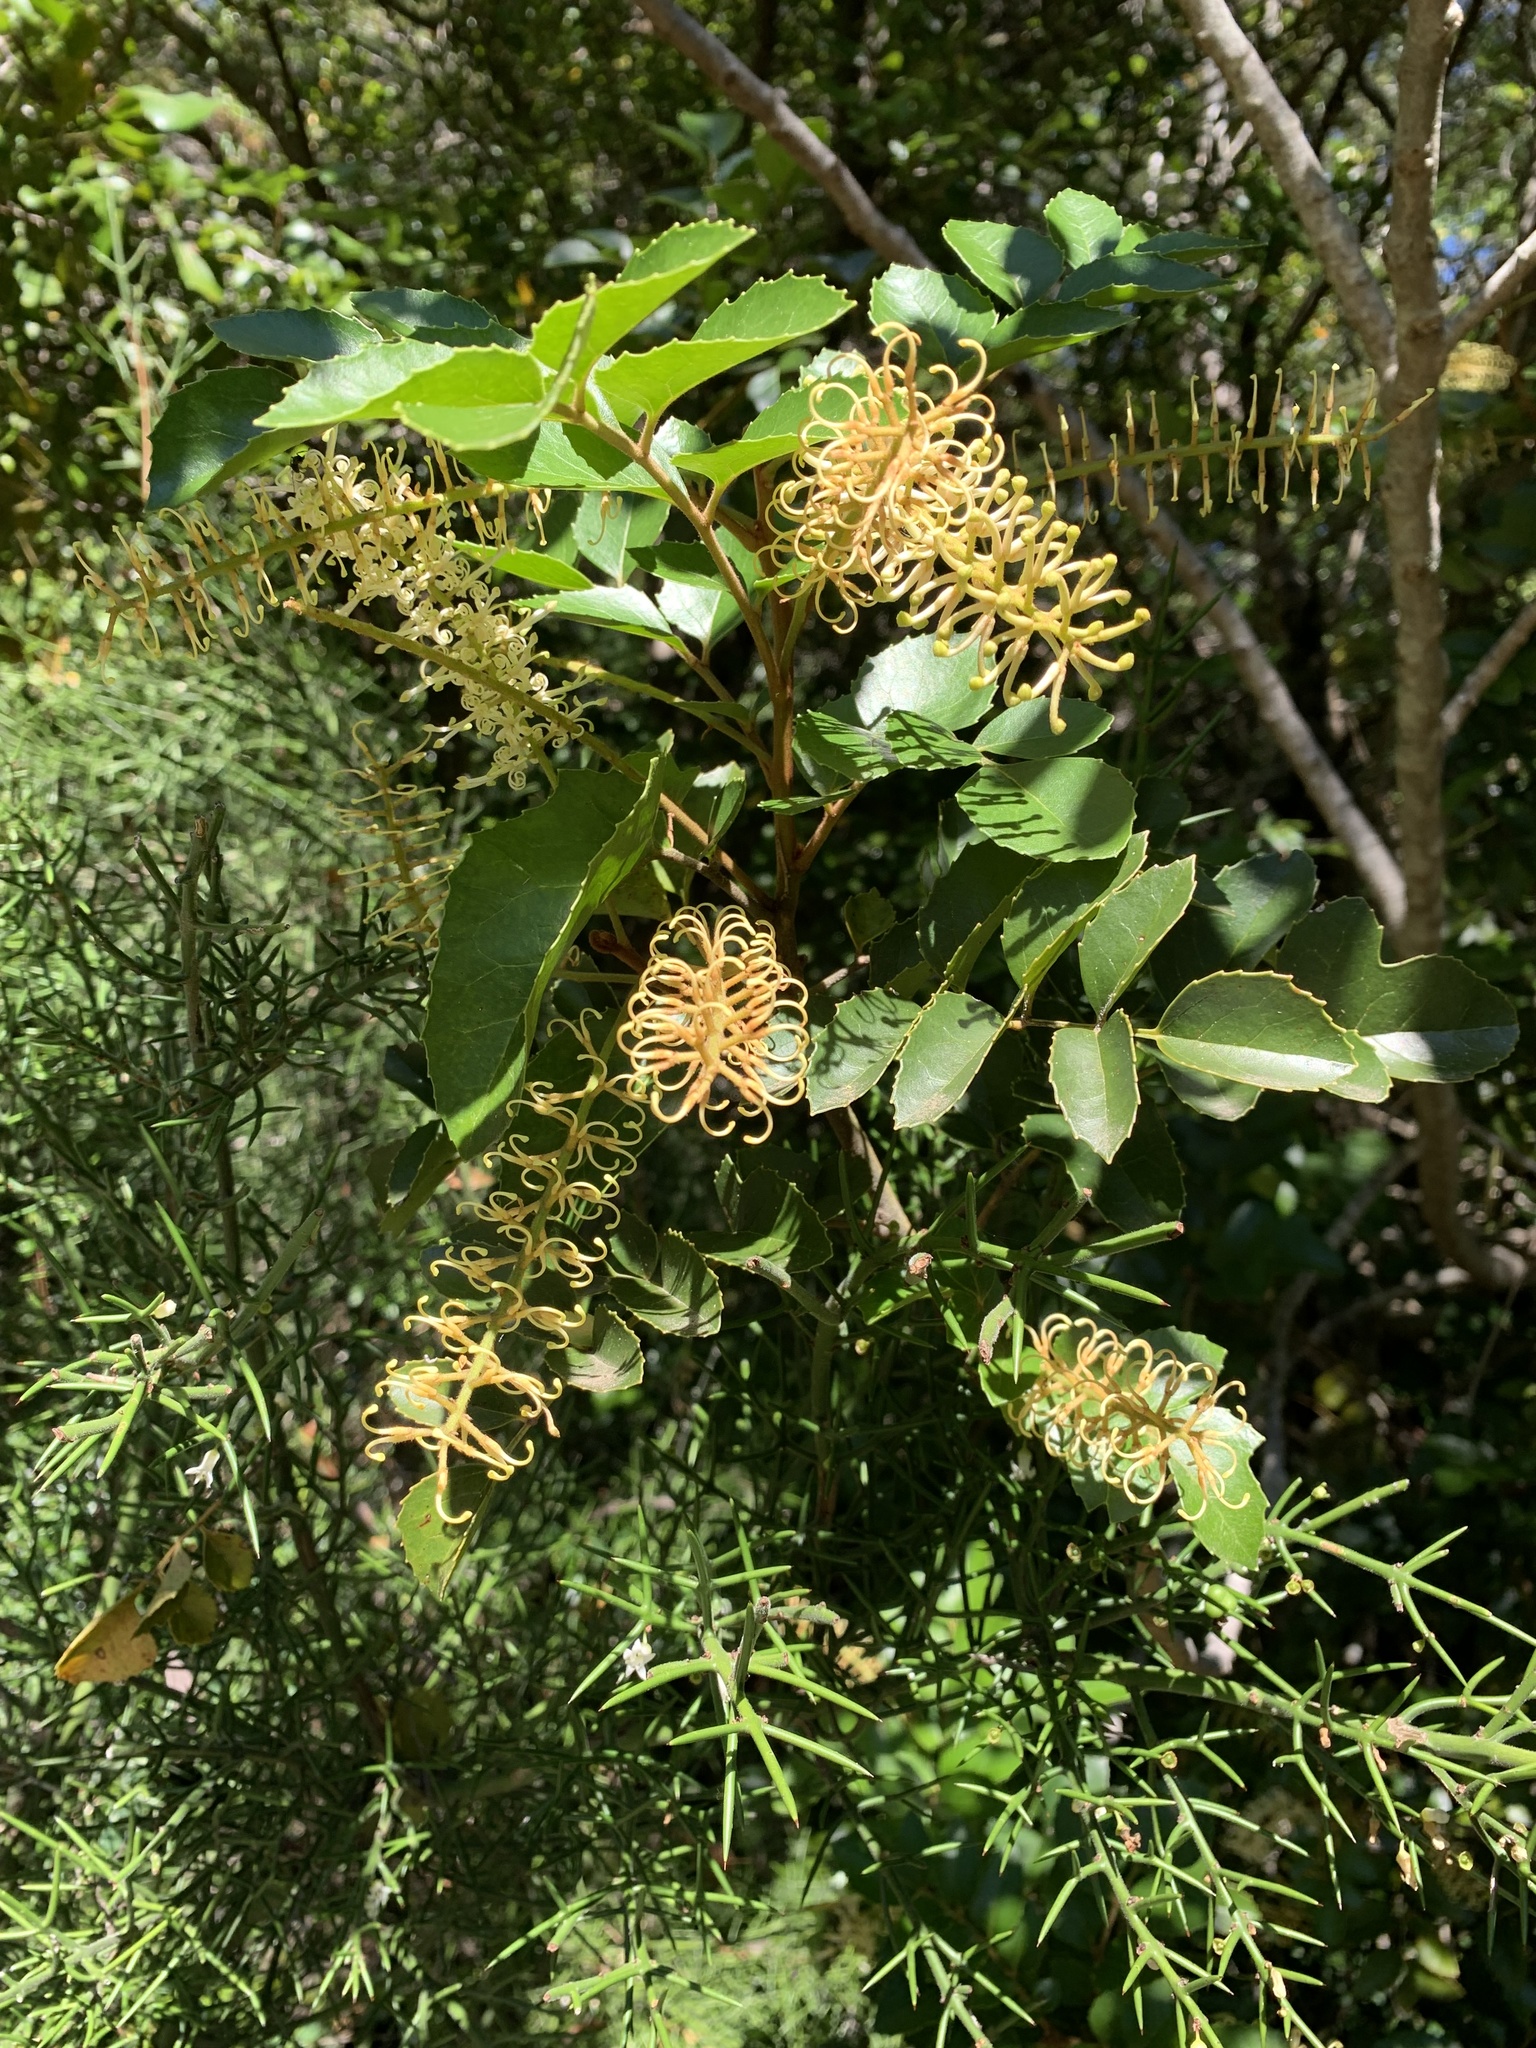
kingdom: Plantae
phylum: Tracheophyta
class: Magnoliopsida
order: Proteales
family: Proteaceae
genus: Gevuina
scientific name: Gevuina avellana
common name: Chilean hazel
